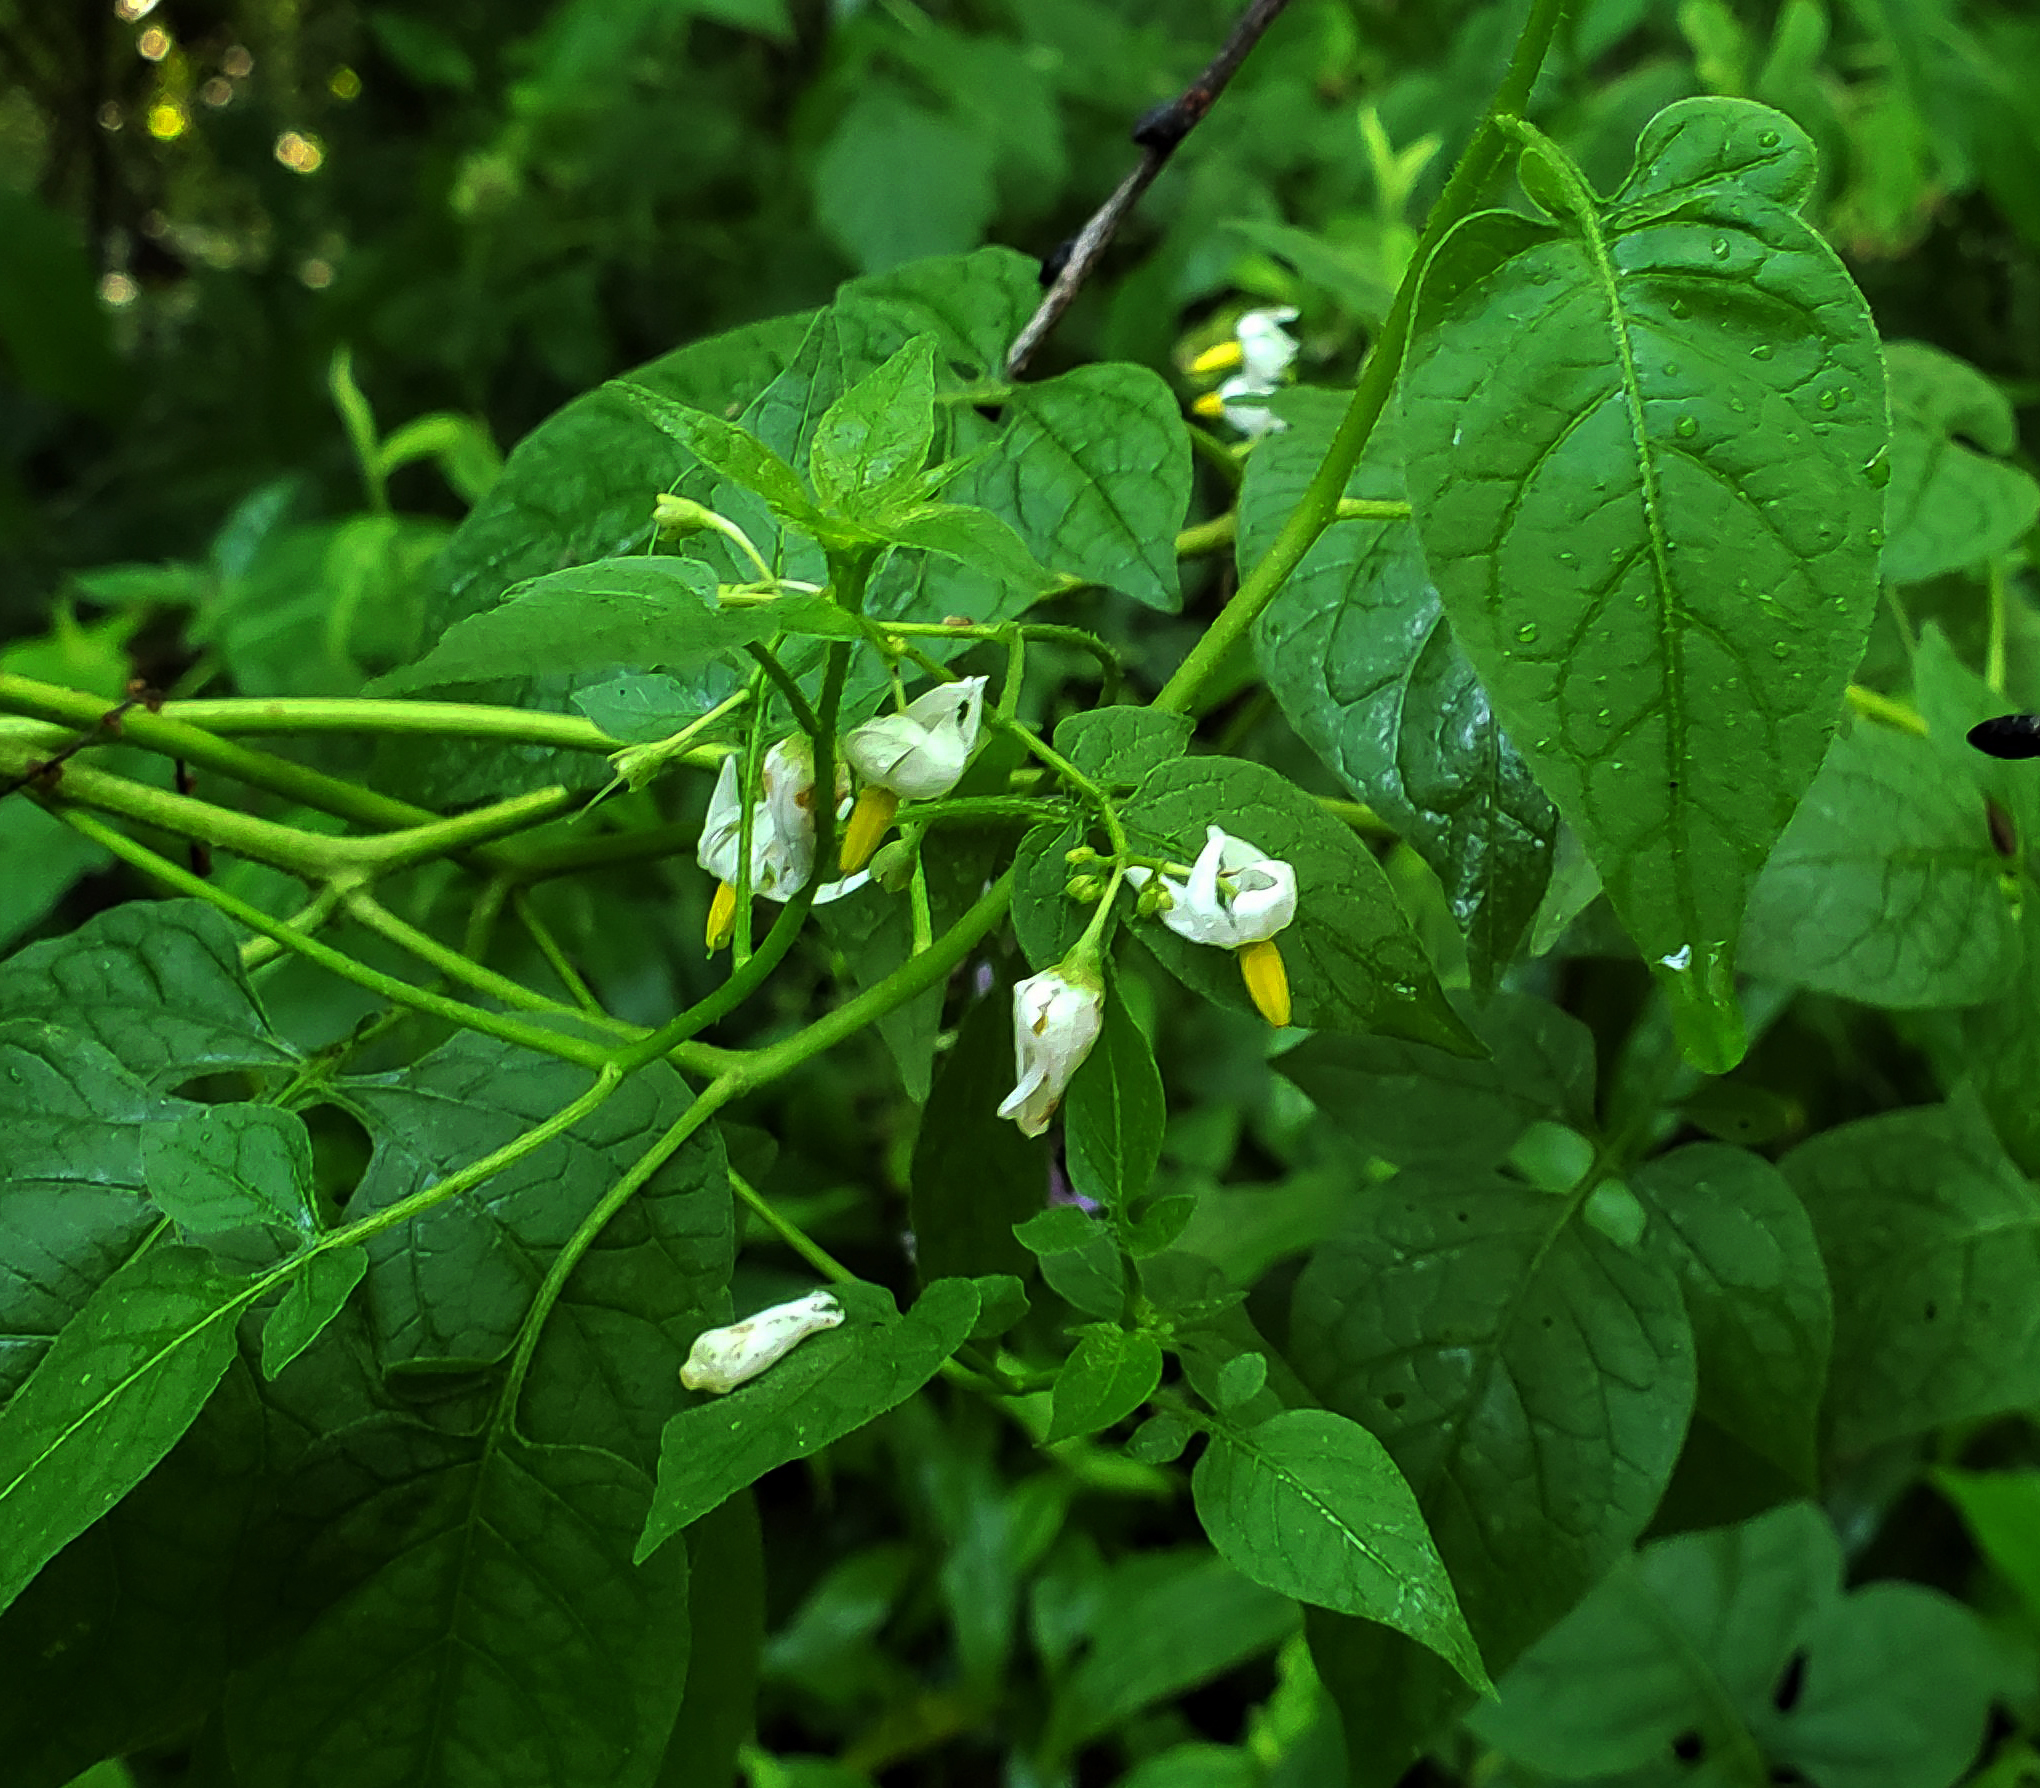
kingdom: Plantae
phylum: Tracheophyta
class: Magnoliopsida
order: Solanales
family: Solanaceae
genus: Solanum
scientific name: Solanum dulcamara
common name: Climbing nightshade
